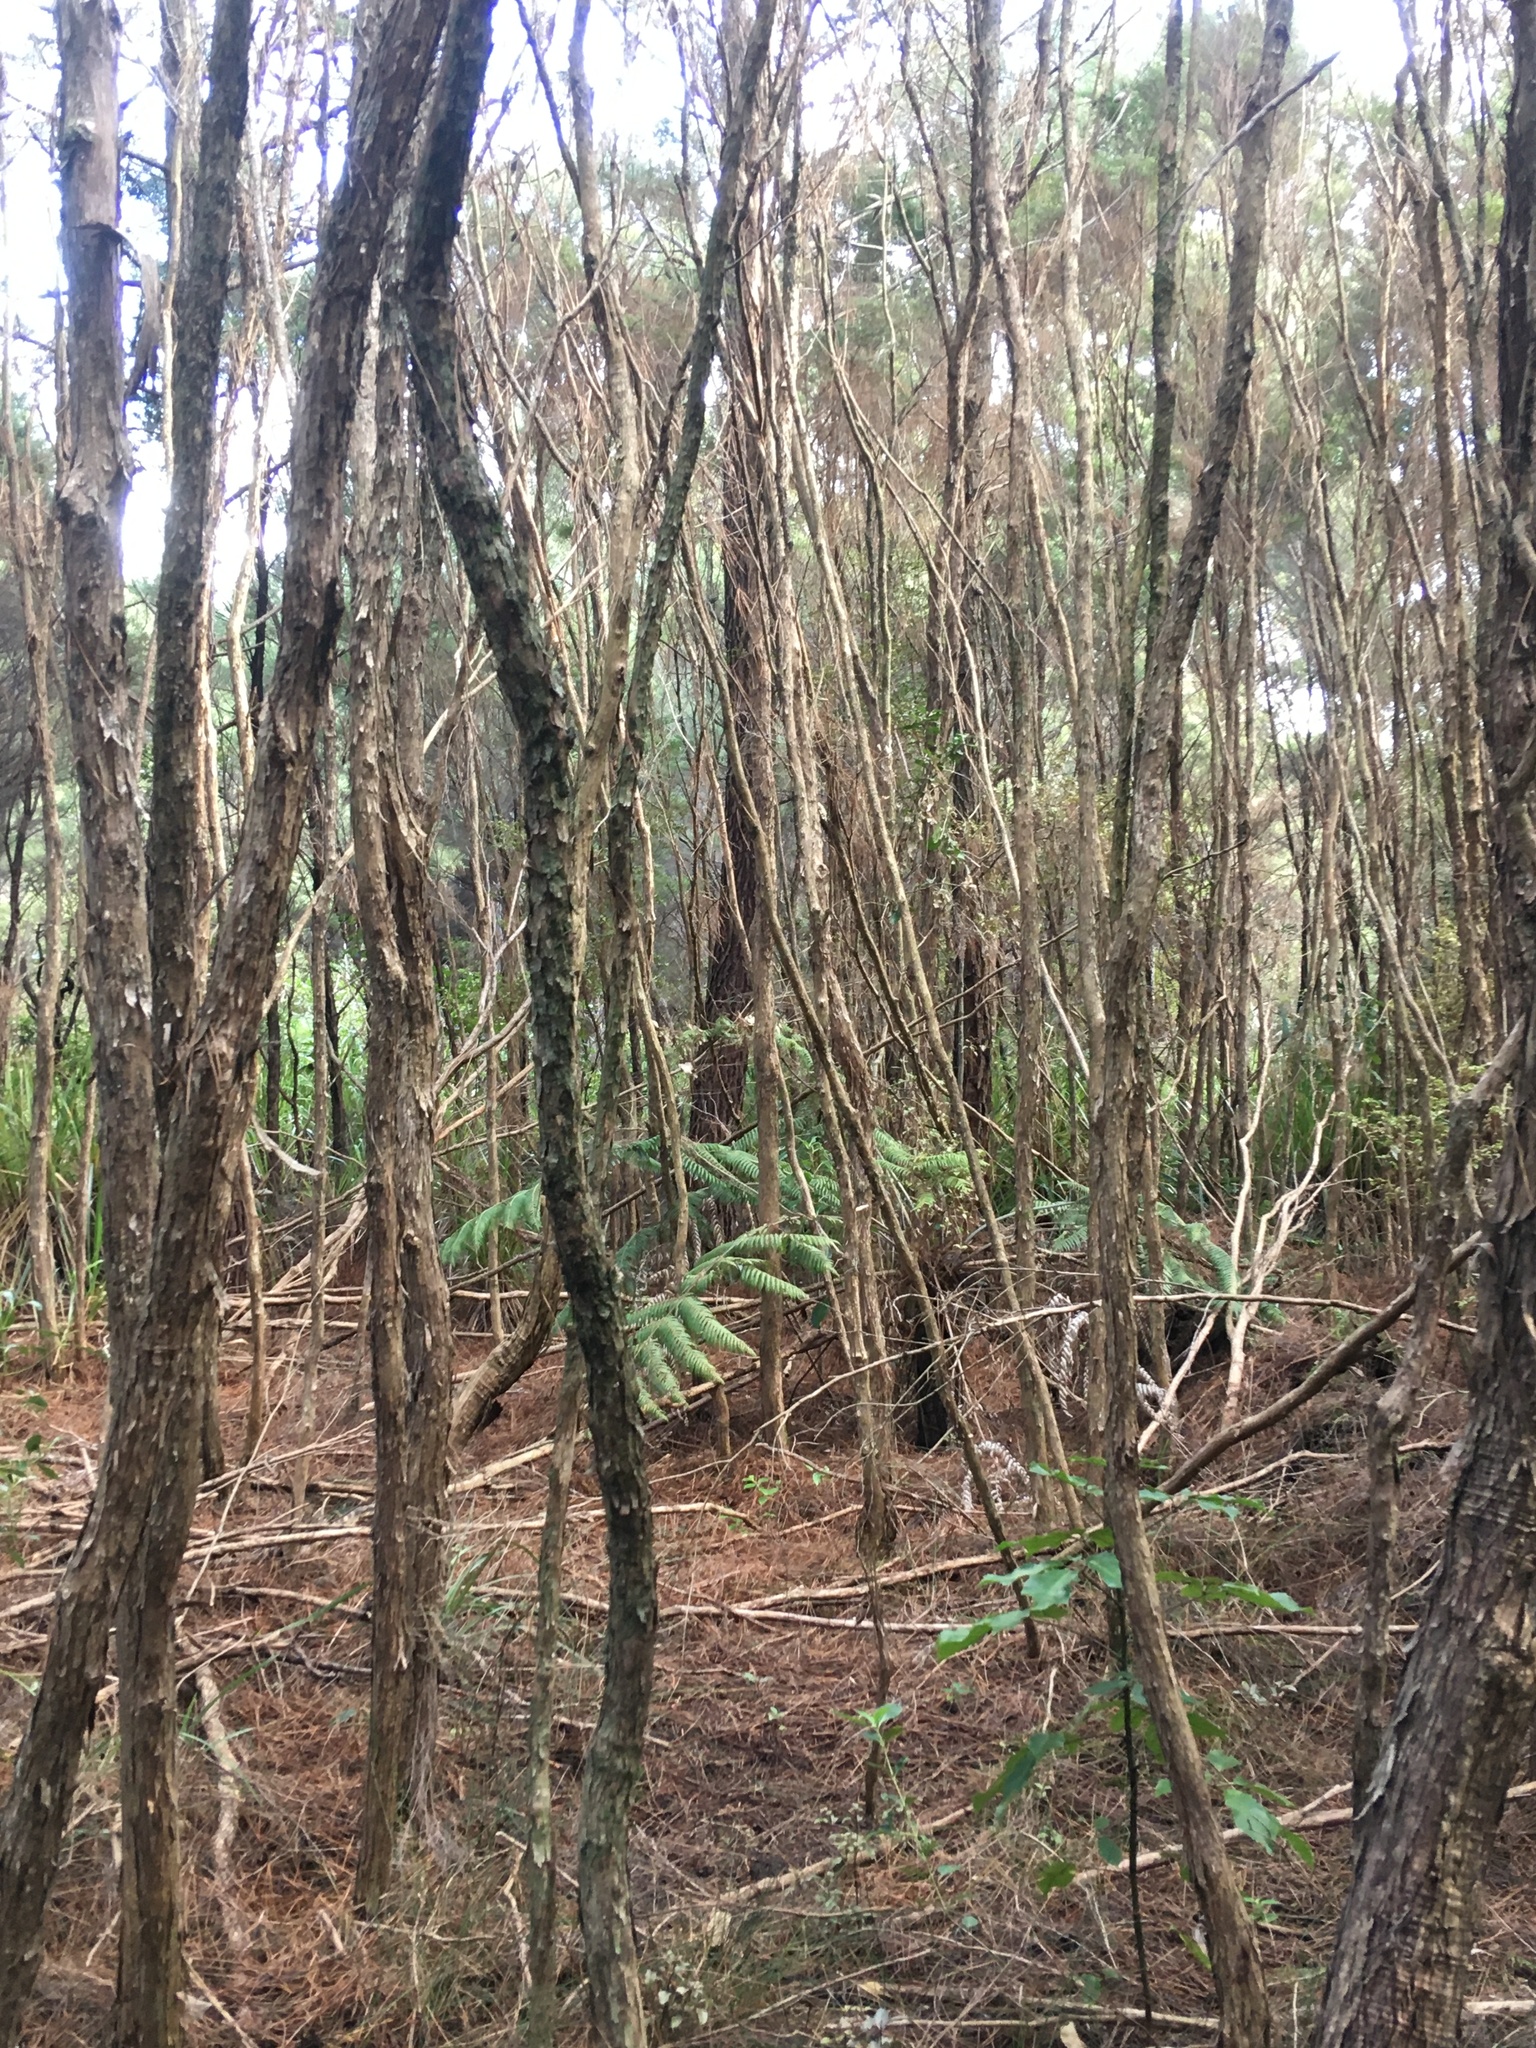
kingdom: Plantae
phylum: Tracheophyta
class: Polypodiopsida
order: Cyatheales
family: Cyatheaceae
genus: Alsophila
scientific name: Alsophila dealbata
